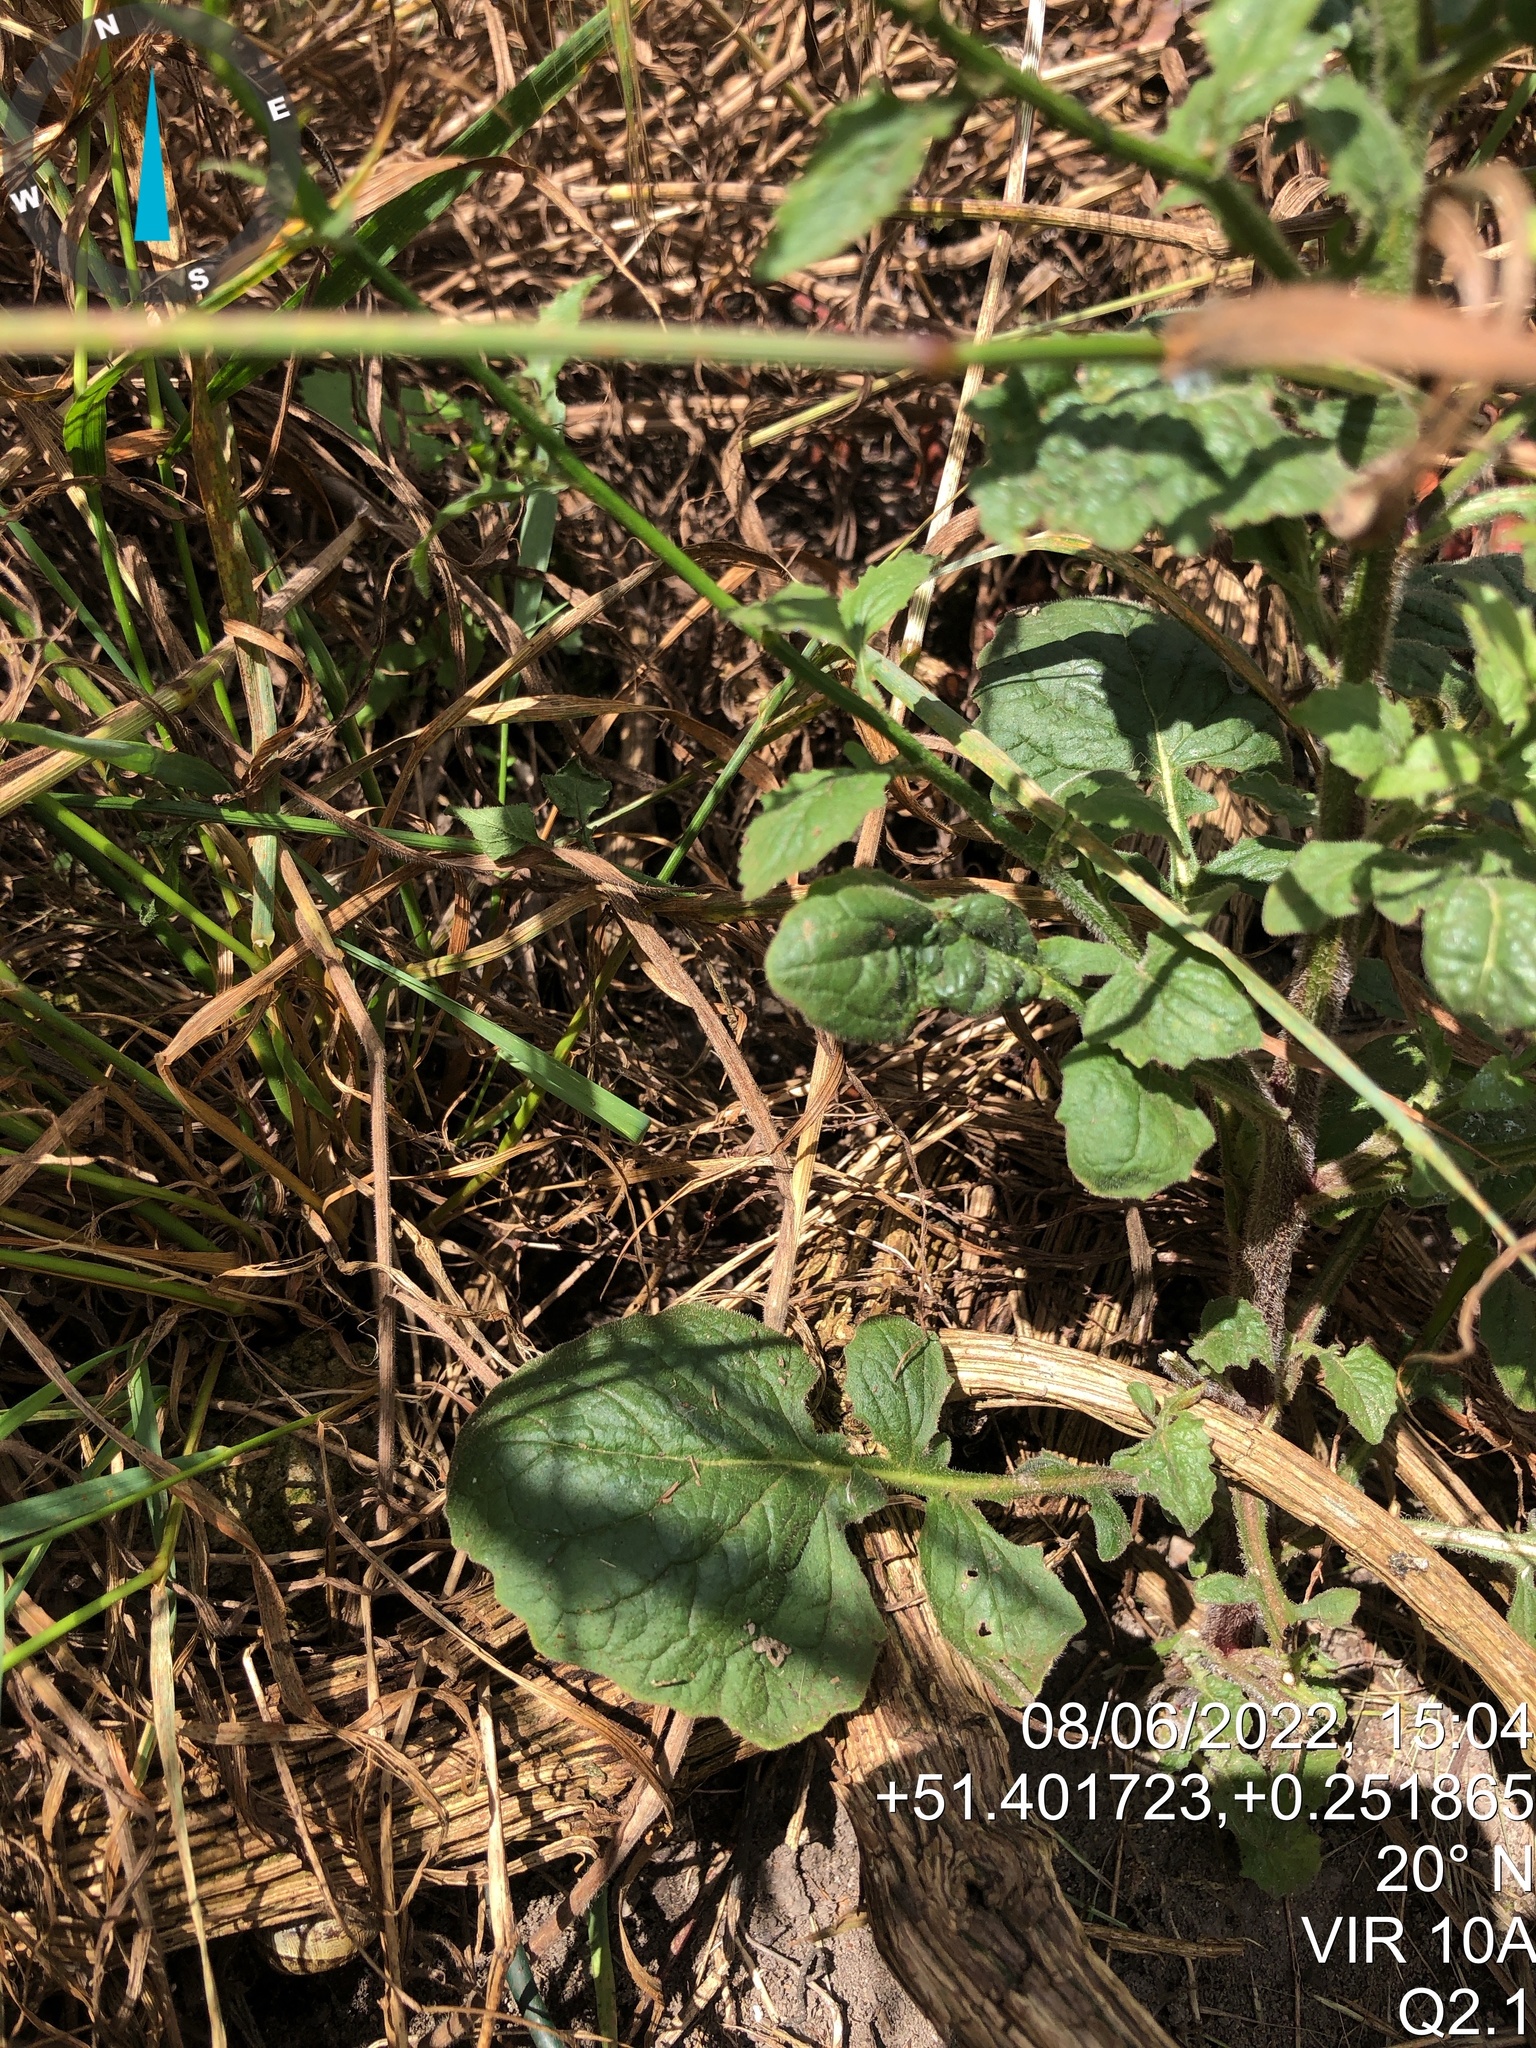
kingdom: Plantae
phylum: Tracheophyta
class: Magnoliopsida
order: Asterales
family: Asteraceae
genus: Lapsana
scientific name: Lapsana communis
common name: Nipplewort
